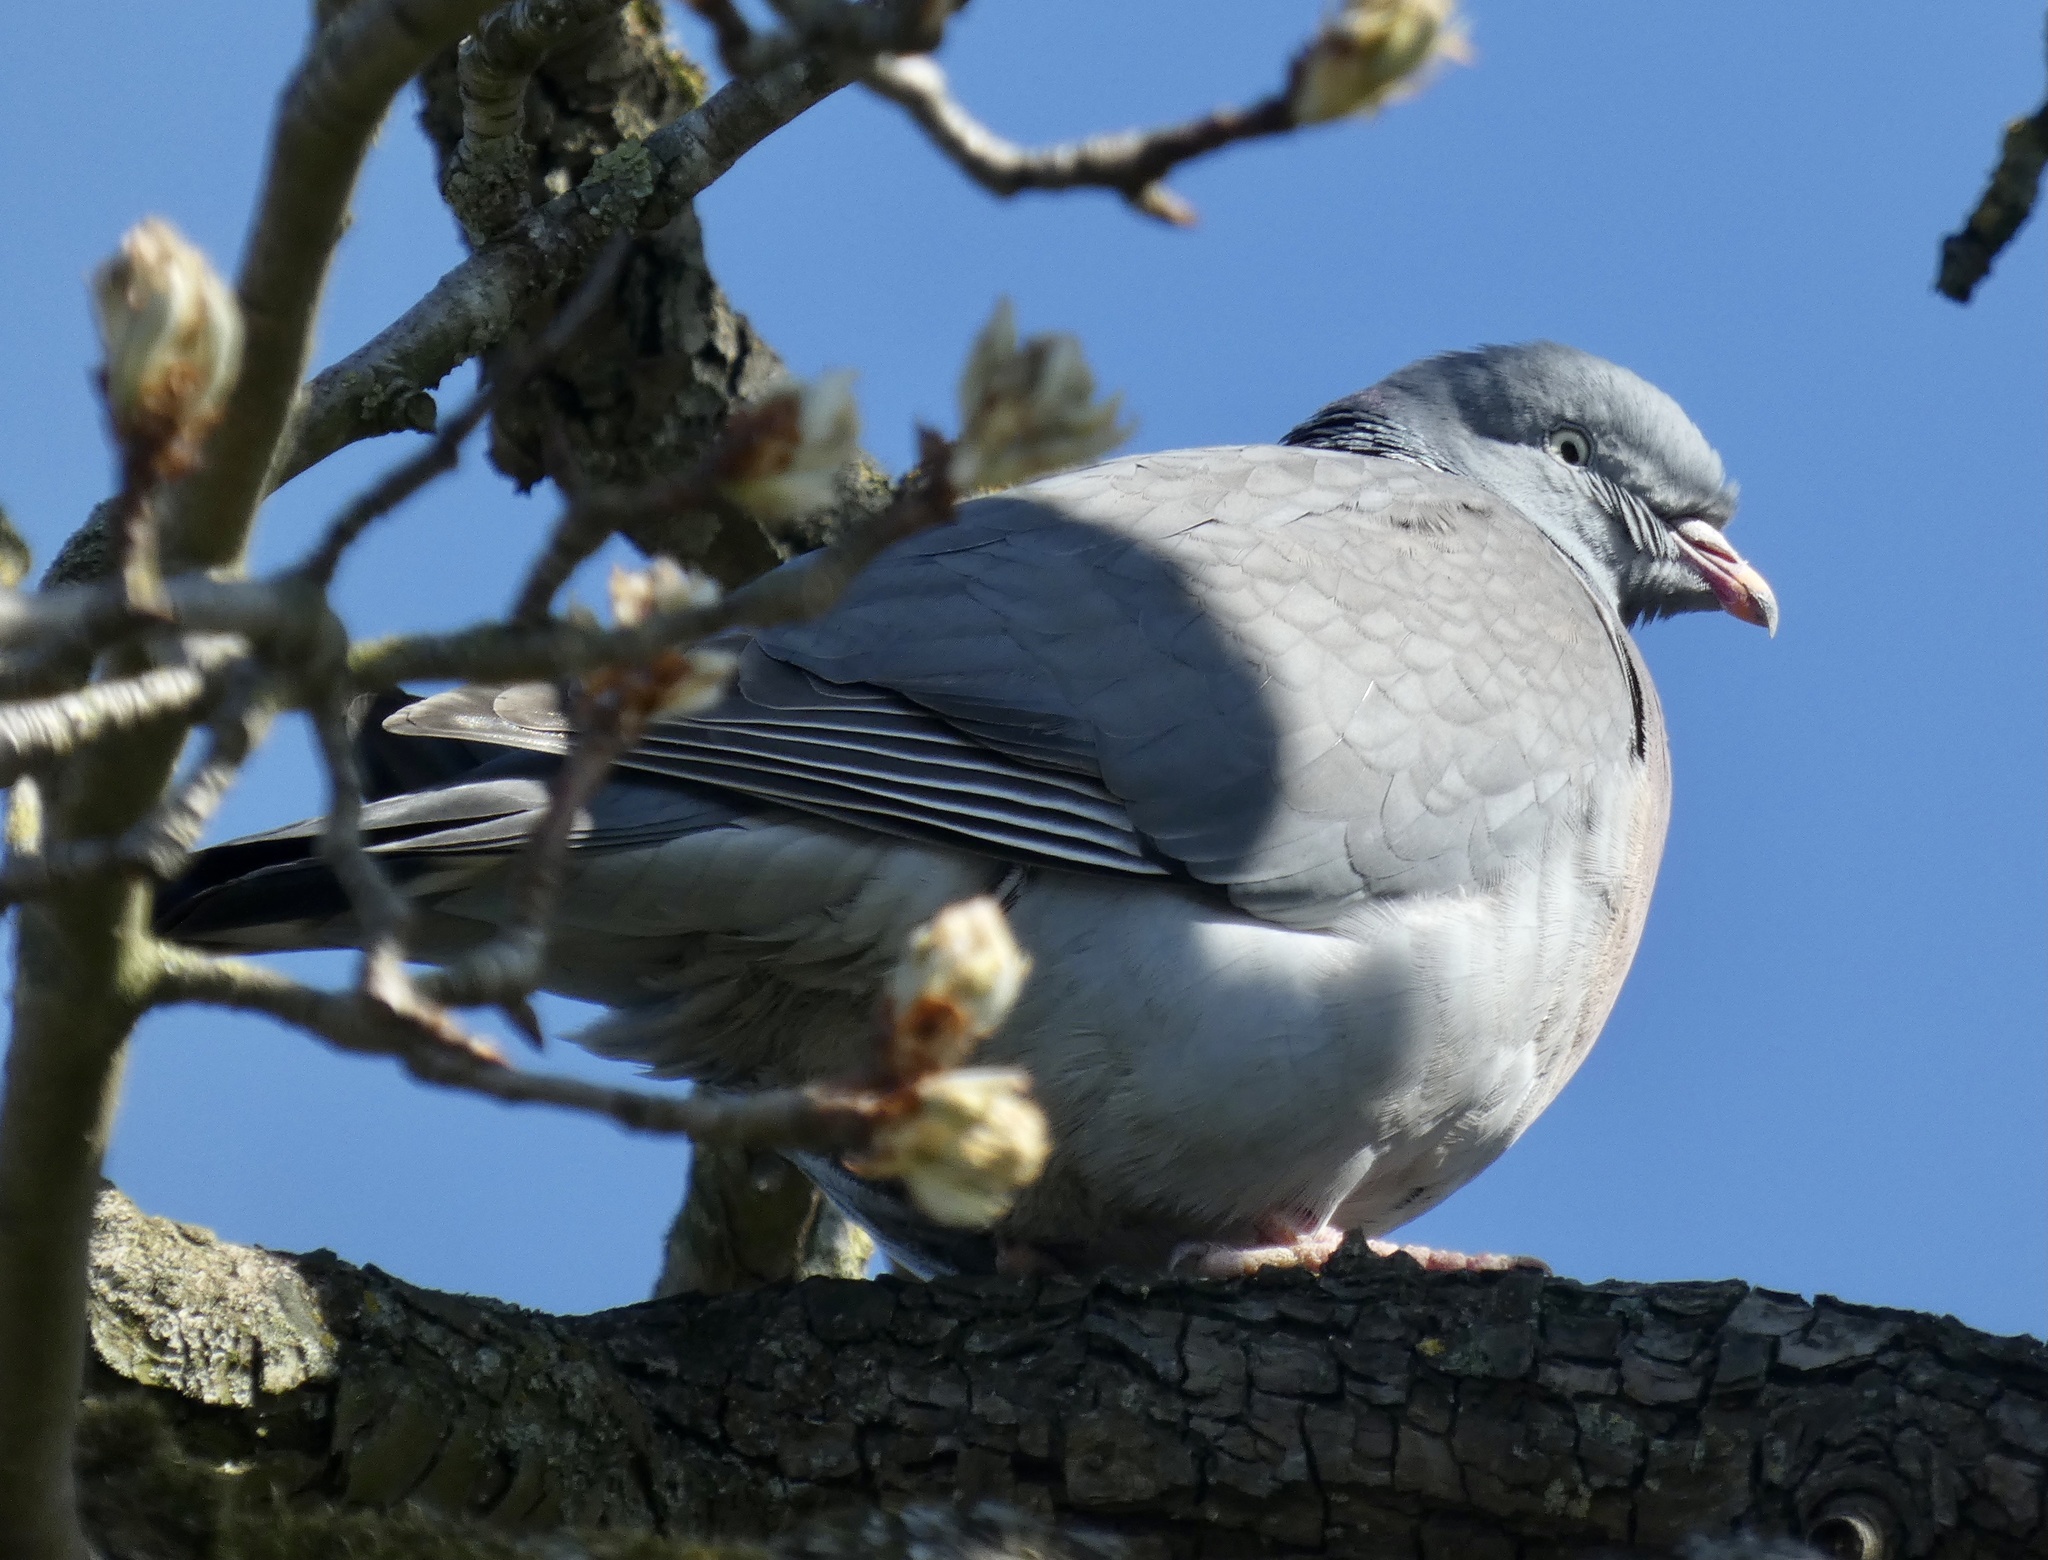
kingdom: Animalia
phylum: Chordata
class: Aves
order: Columbiformes
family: Columbidae
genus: Columba
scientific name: Columba palumbus
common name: Common wood pigeon
